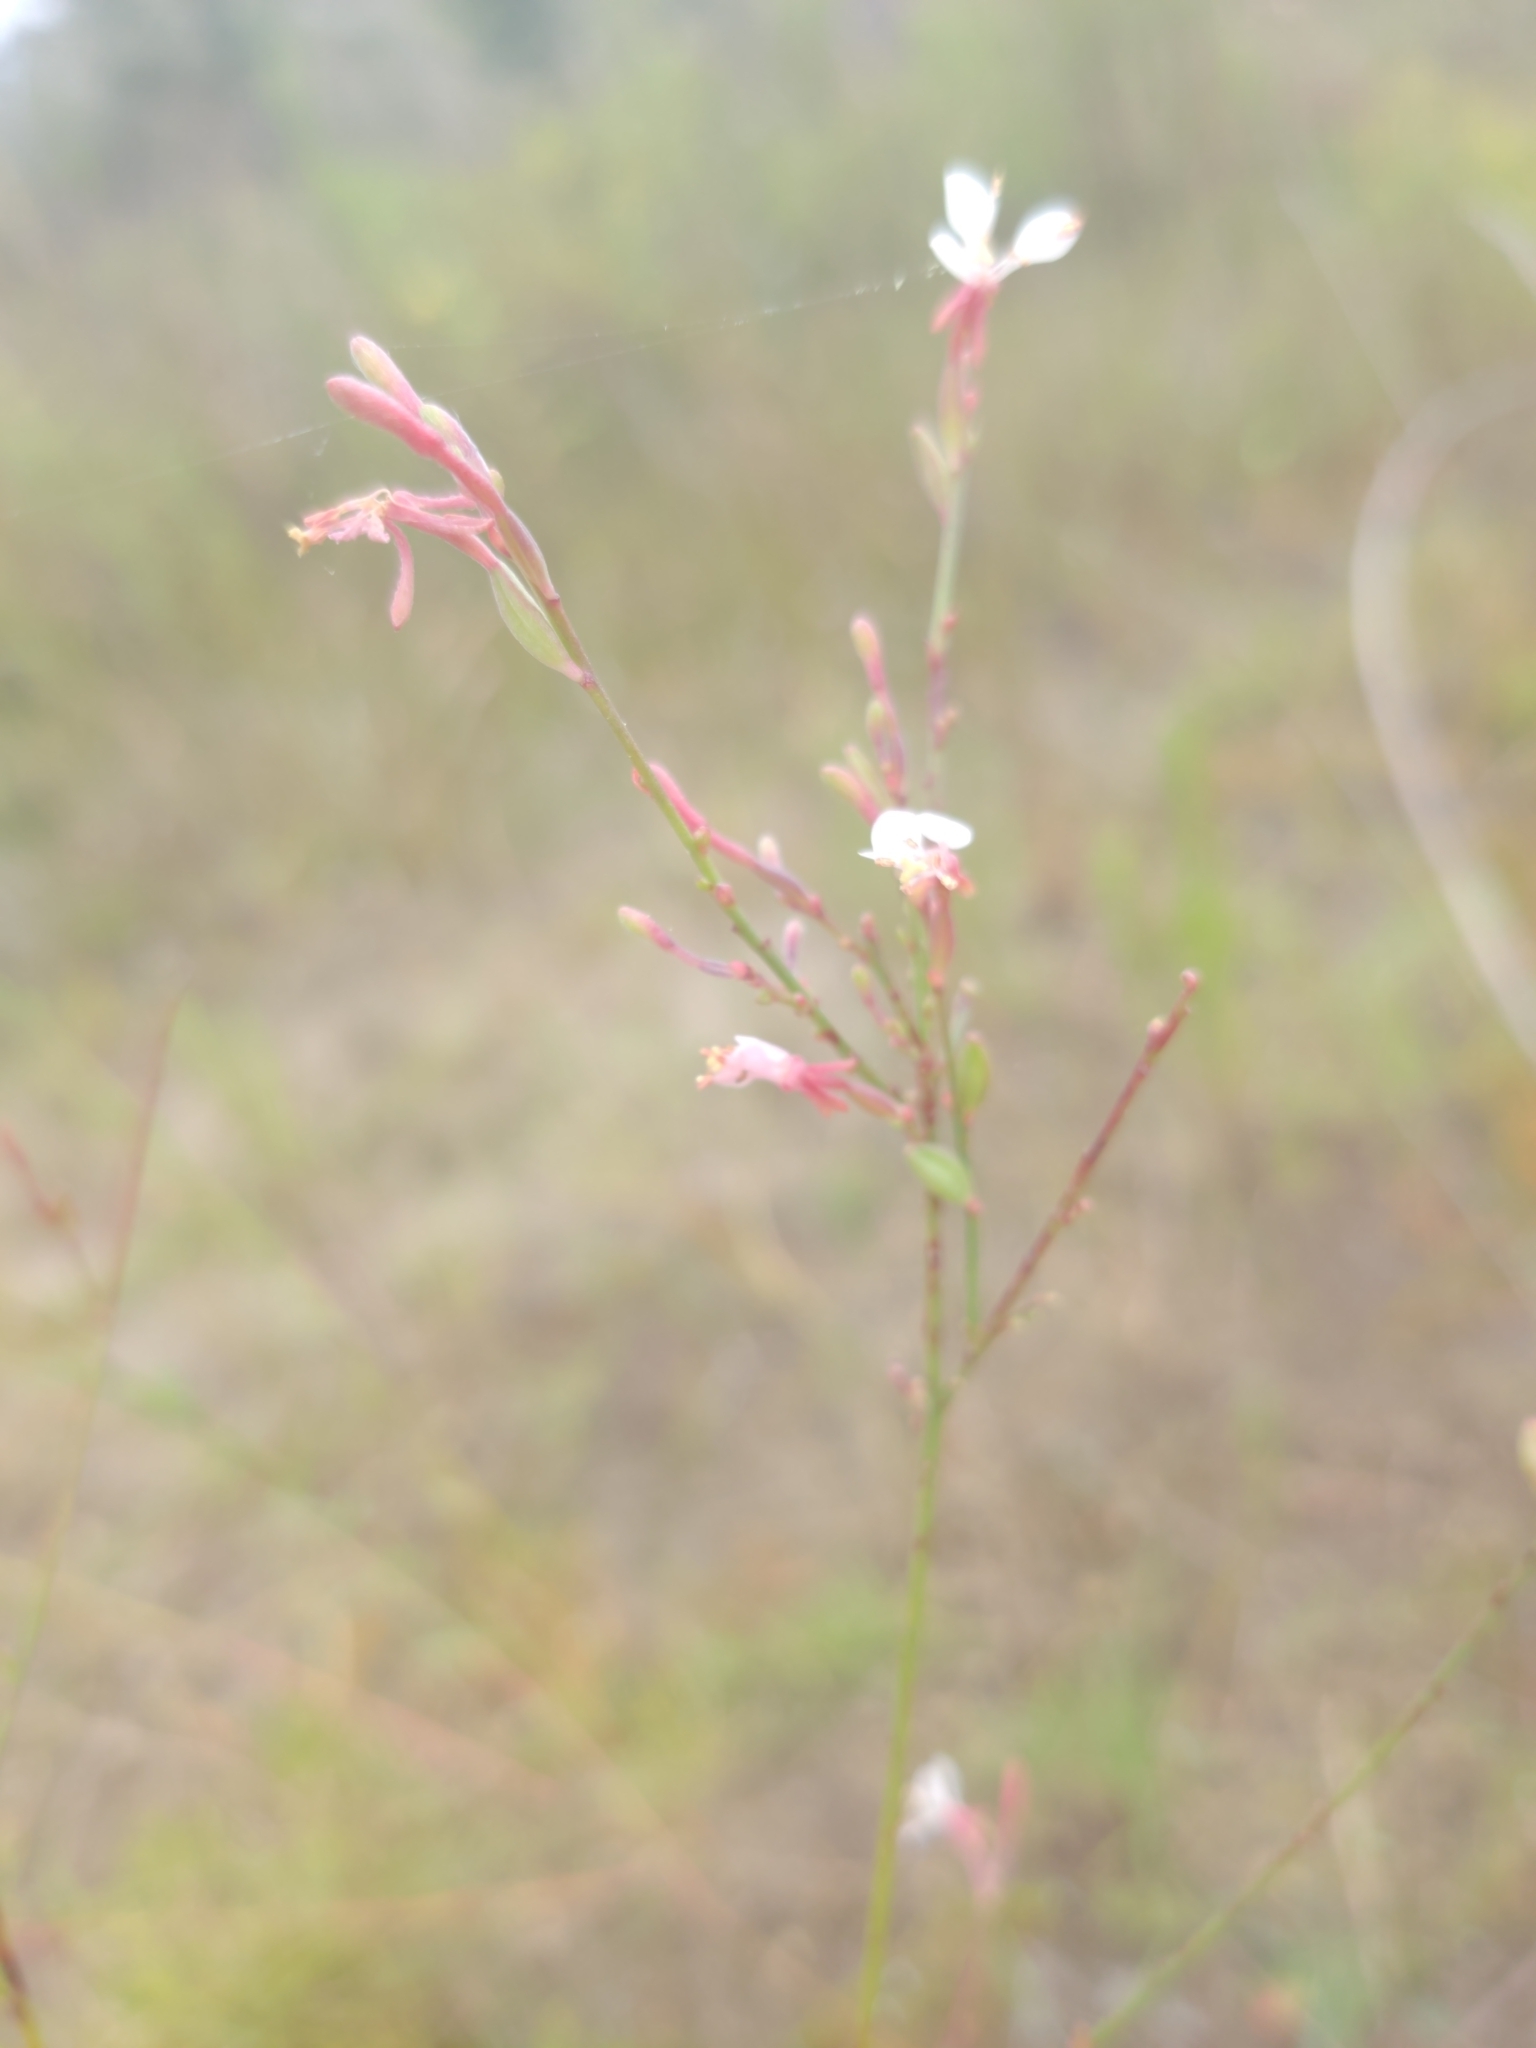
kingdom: Plantae
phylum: Tracheophyta
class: Magnoliopsida
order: Myrtales
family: Onagraceae
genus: Oenothera
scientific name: Oenothera simulans
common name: Southern beeblossom
